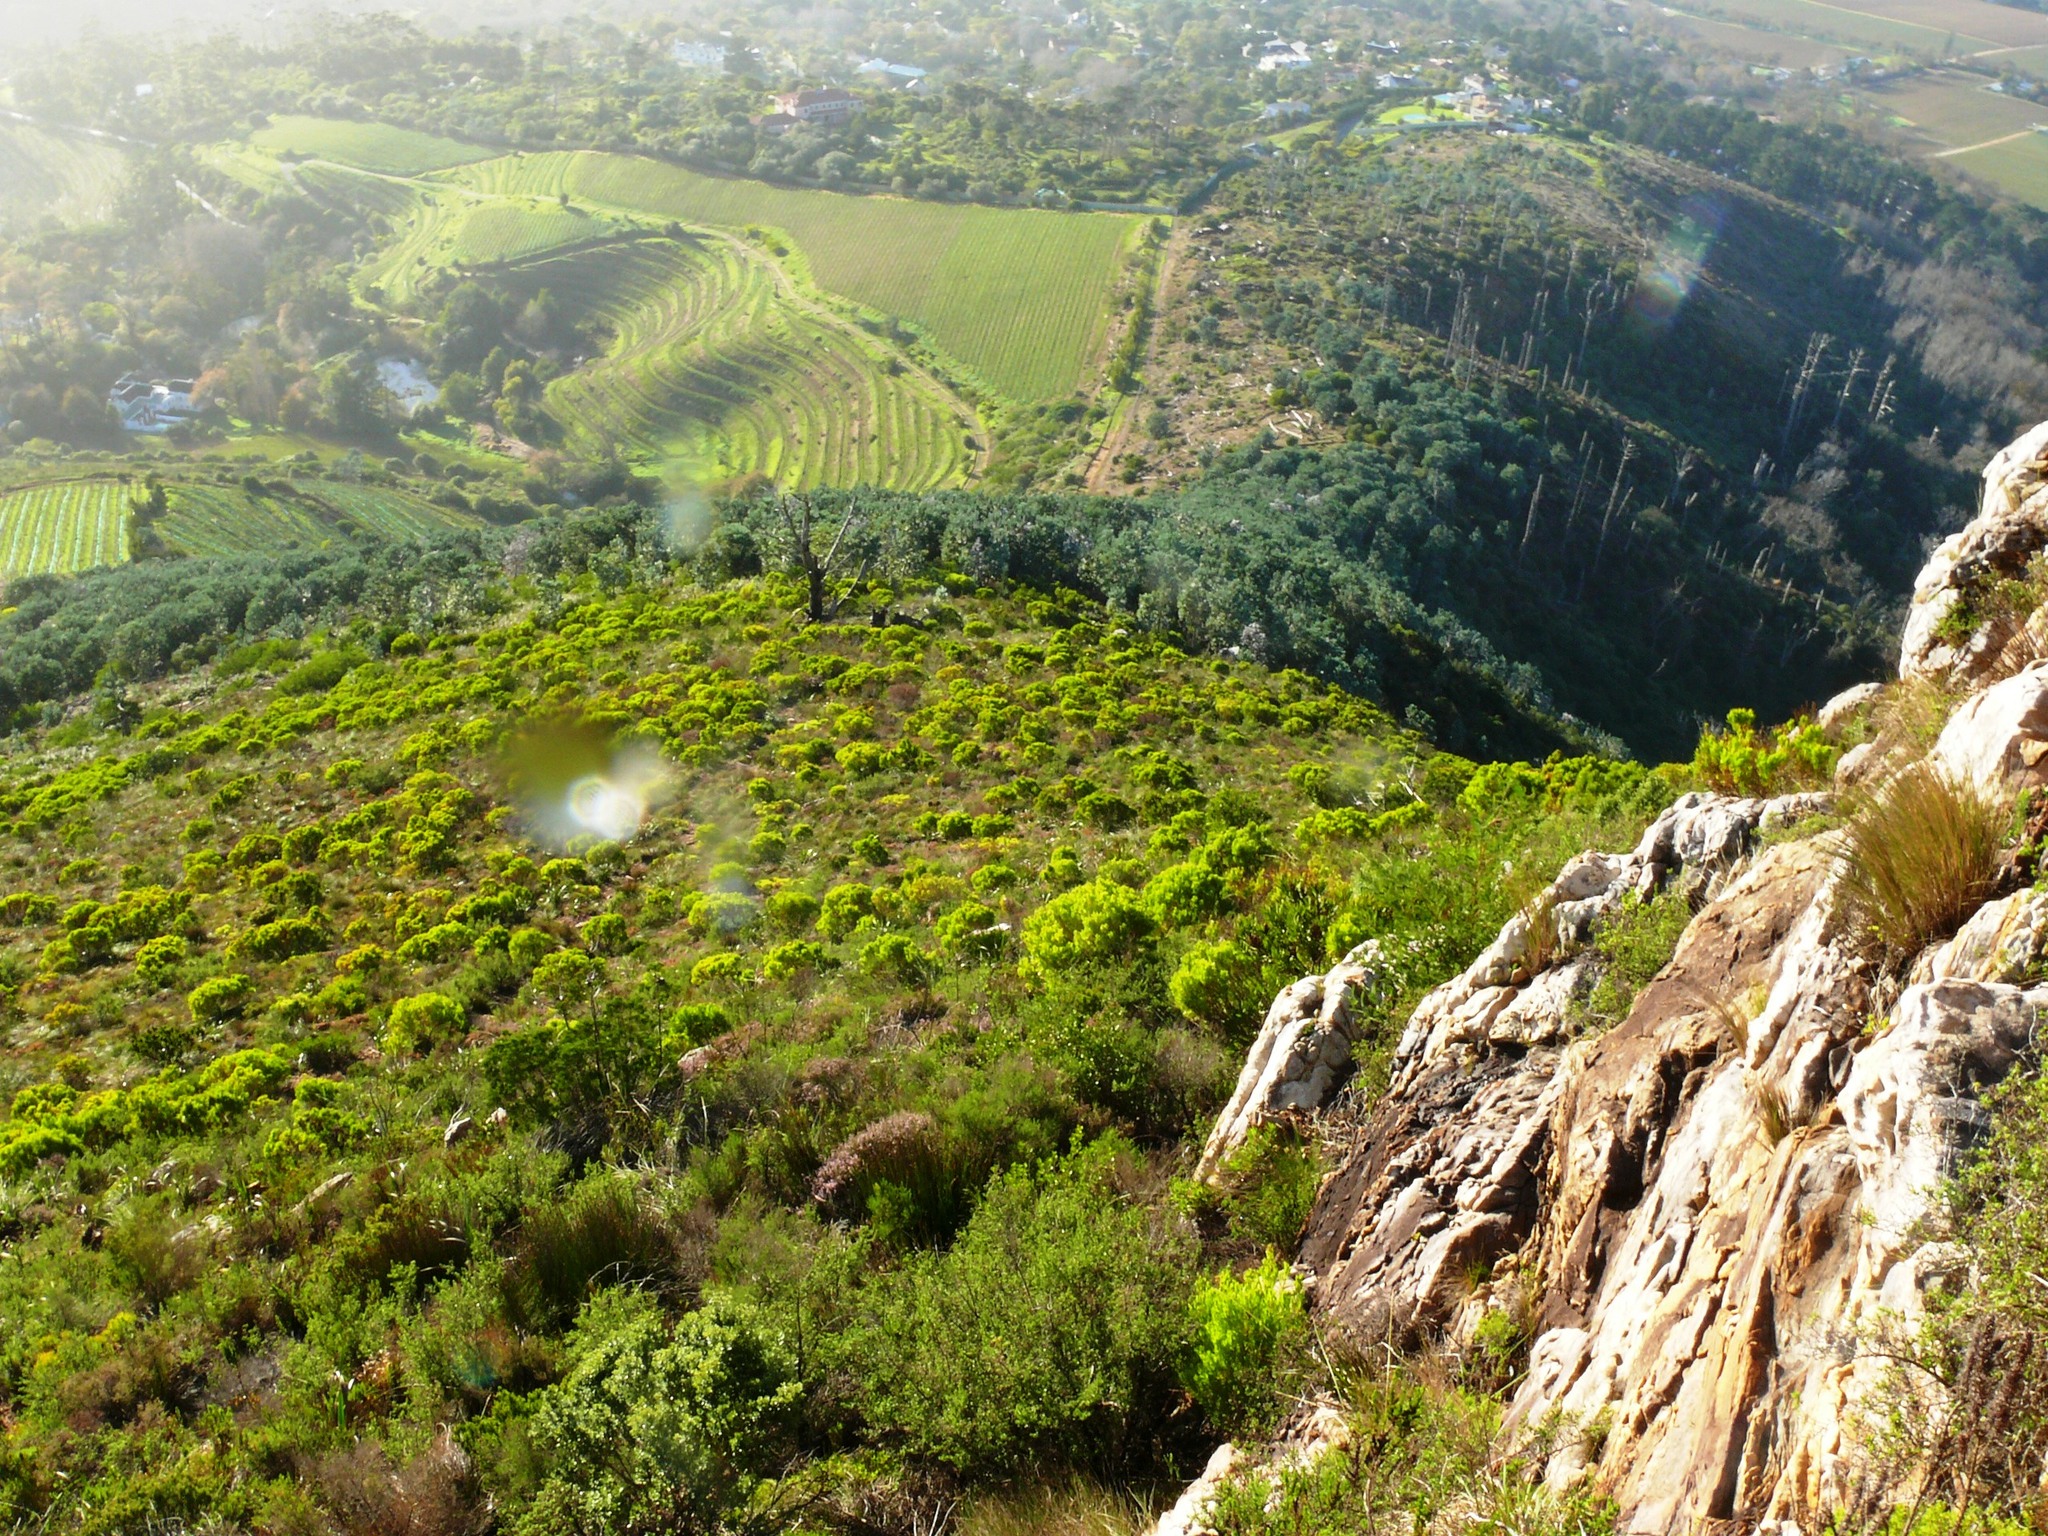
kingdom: Plantae
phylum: Tracheophyta
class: Magnoliopsida
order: Proteales
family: Proteaceae
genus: Leucadendron
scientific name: Leucadendron xanthoconus
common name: Sickle-leaf conebush
